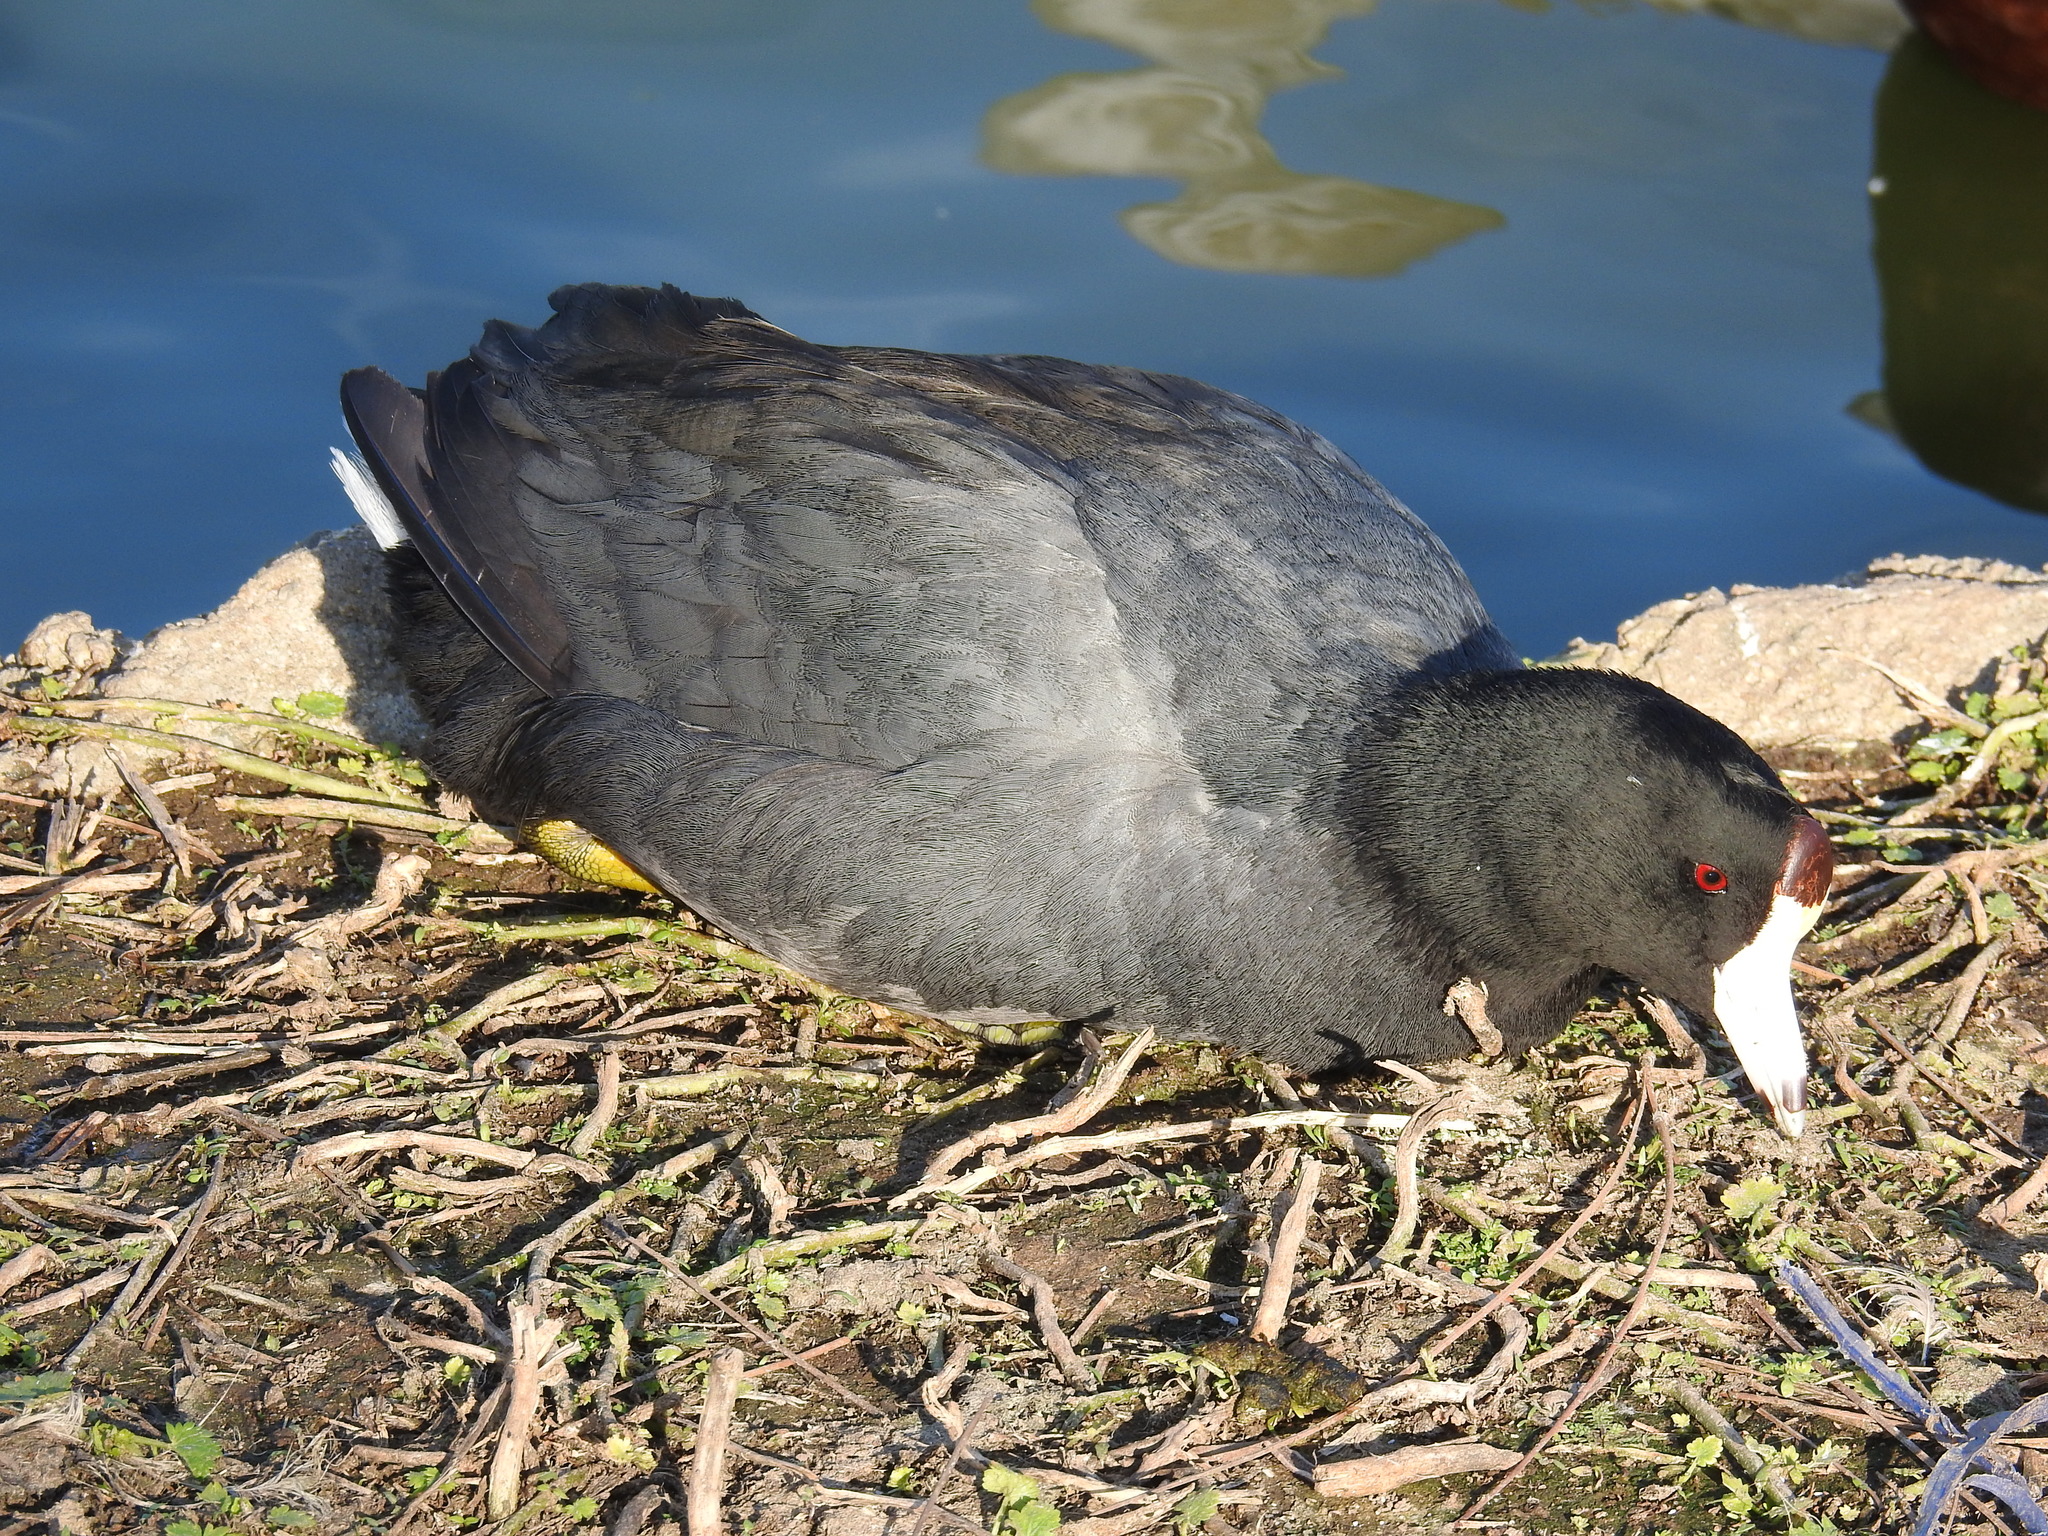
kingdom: Animalia
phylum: Chordata
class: Aves
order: Gruiformes
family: Rallidae
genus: Fulica
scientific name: Fulica americana
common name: American coot
